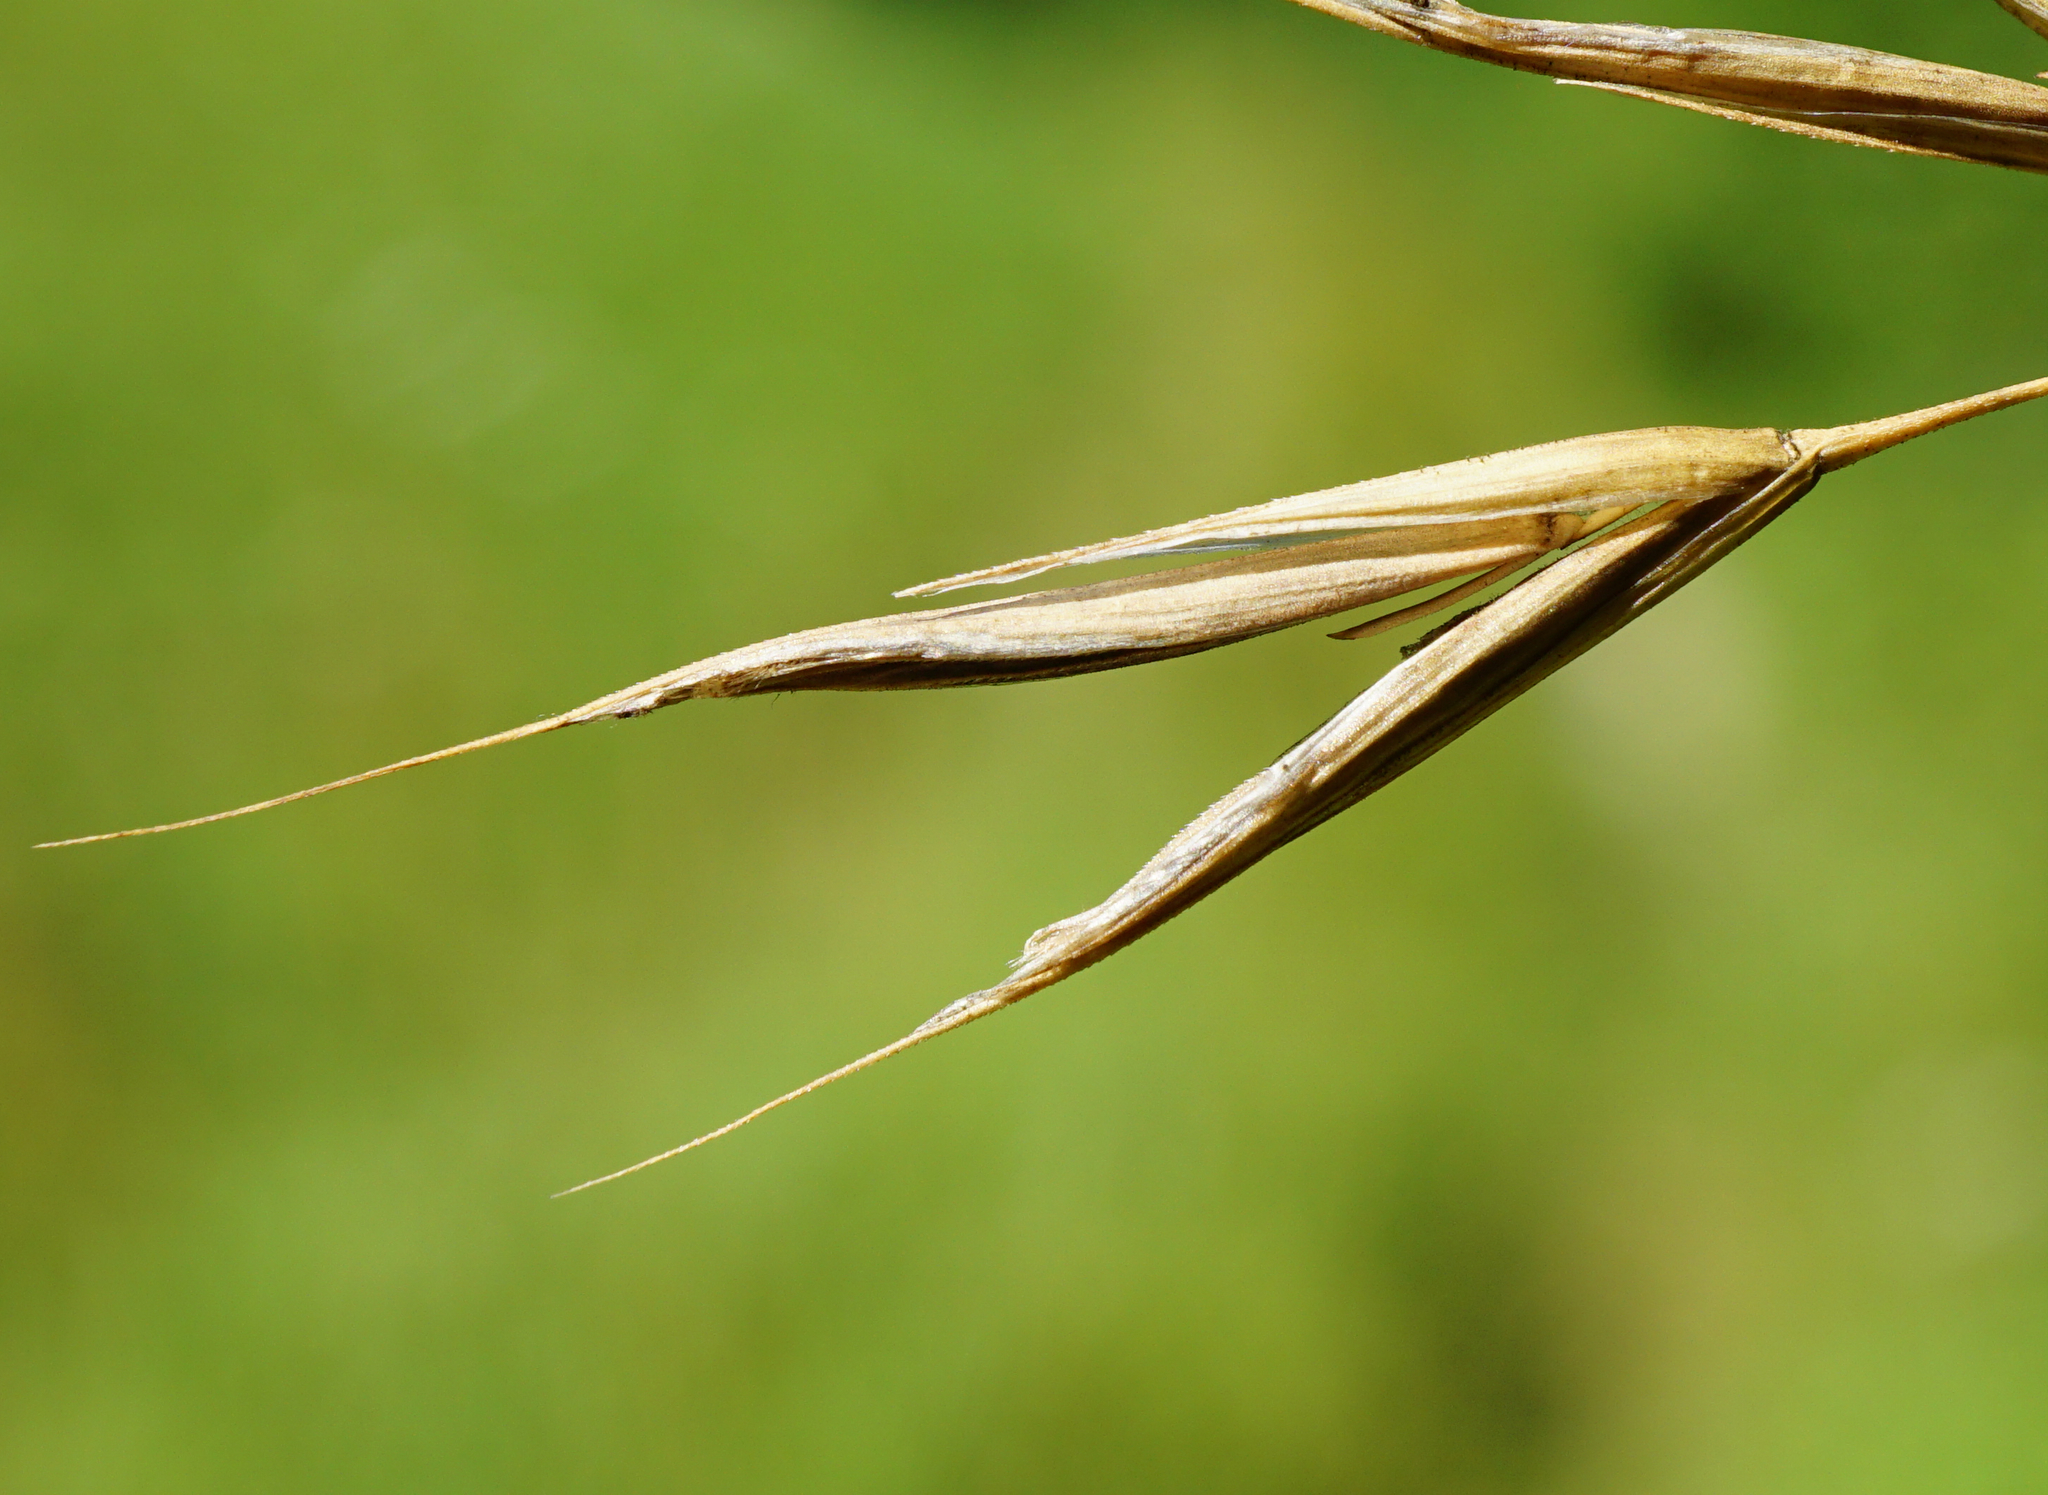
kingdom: Plantae
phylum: Tracheophyta
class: Liliopsida
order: Poales
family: Poaceae
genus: Bromus
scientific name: Bromus erectus
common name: Erect brome
